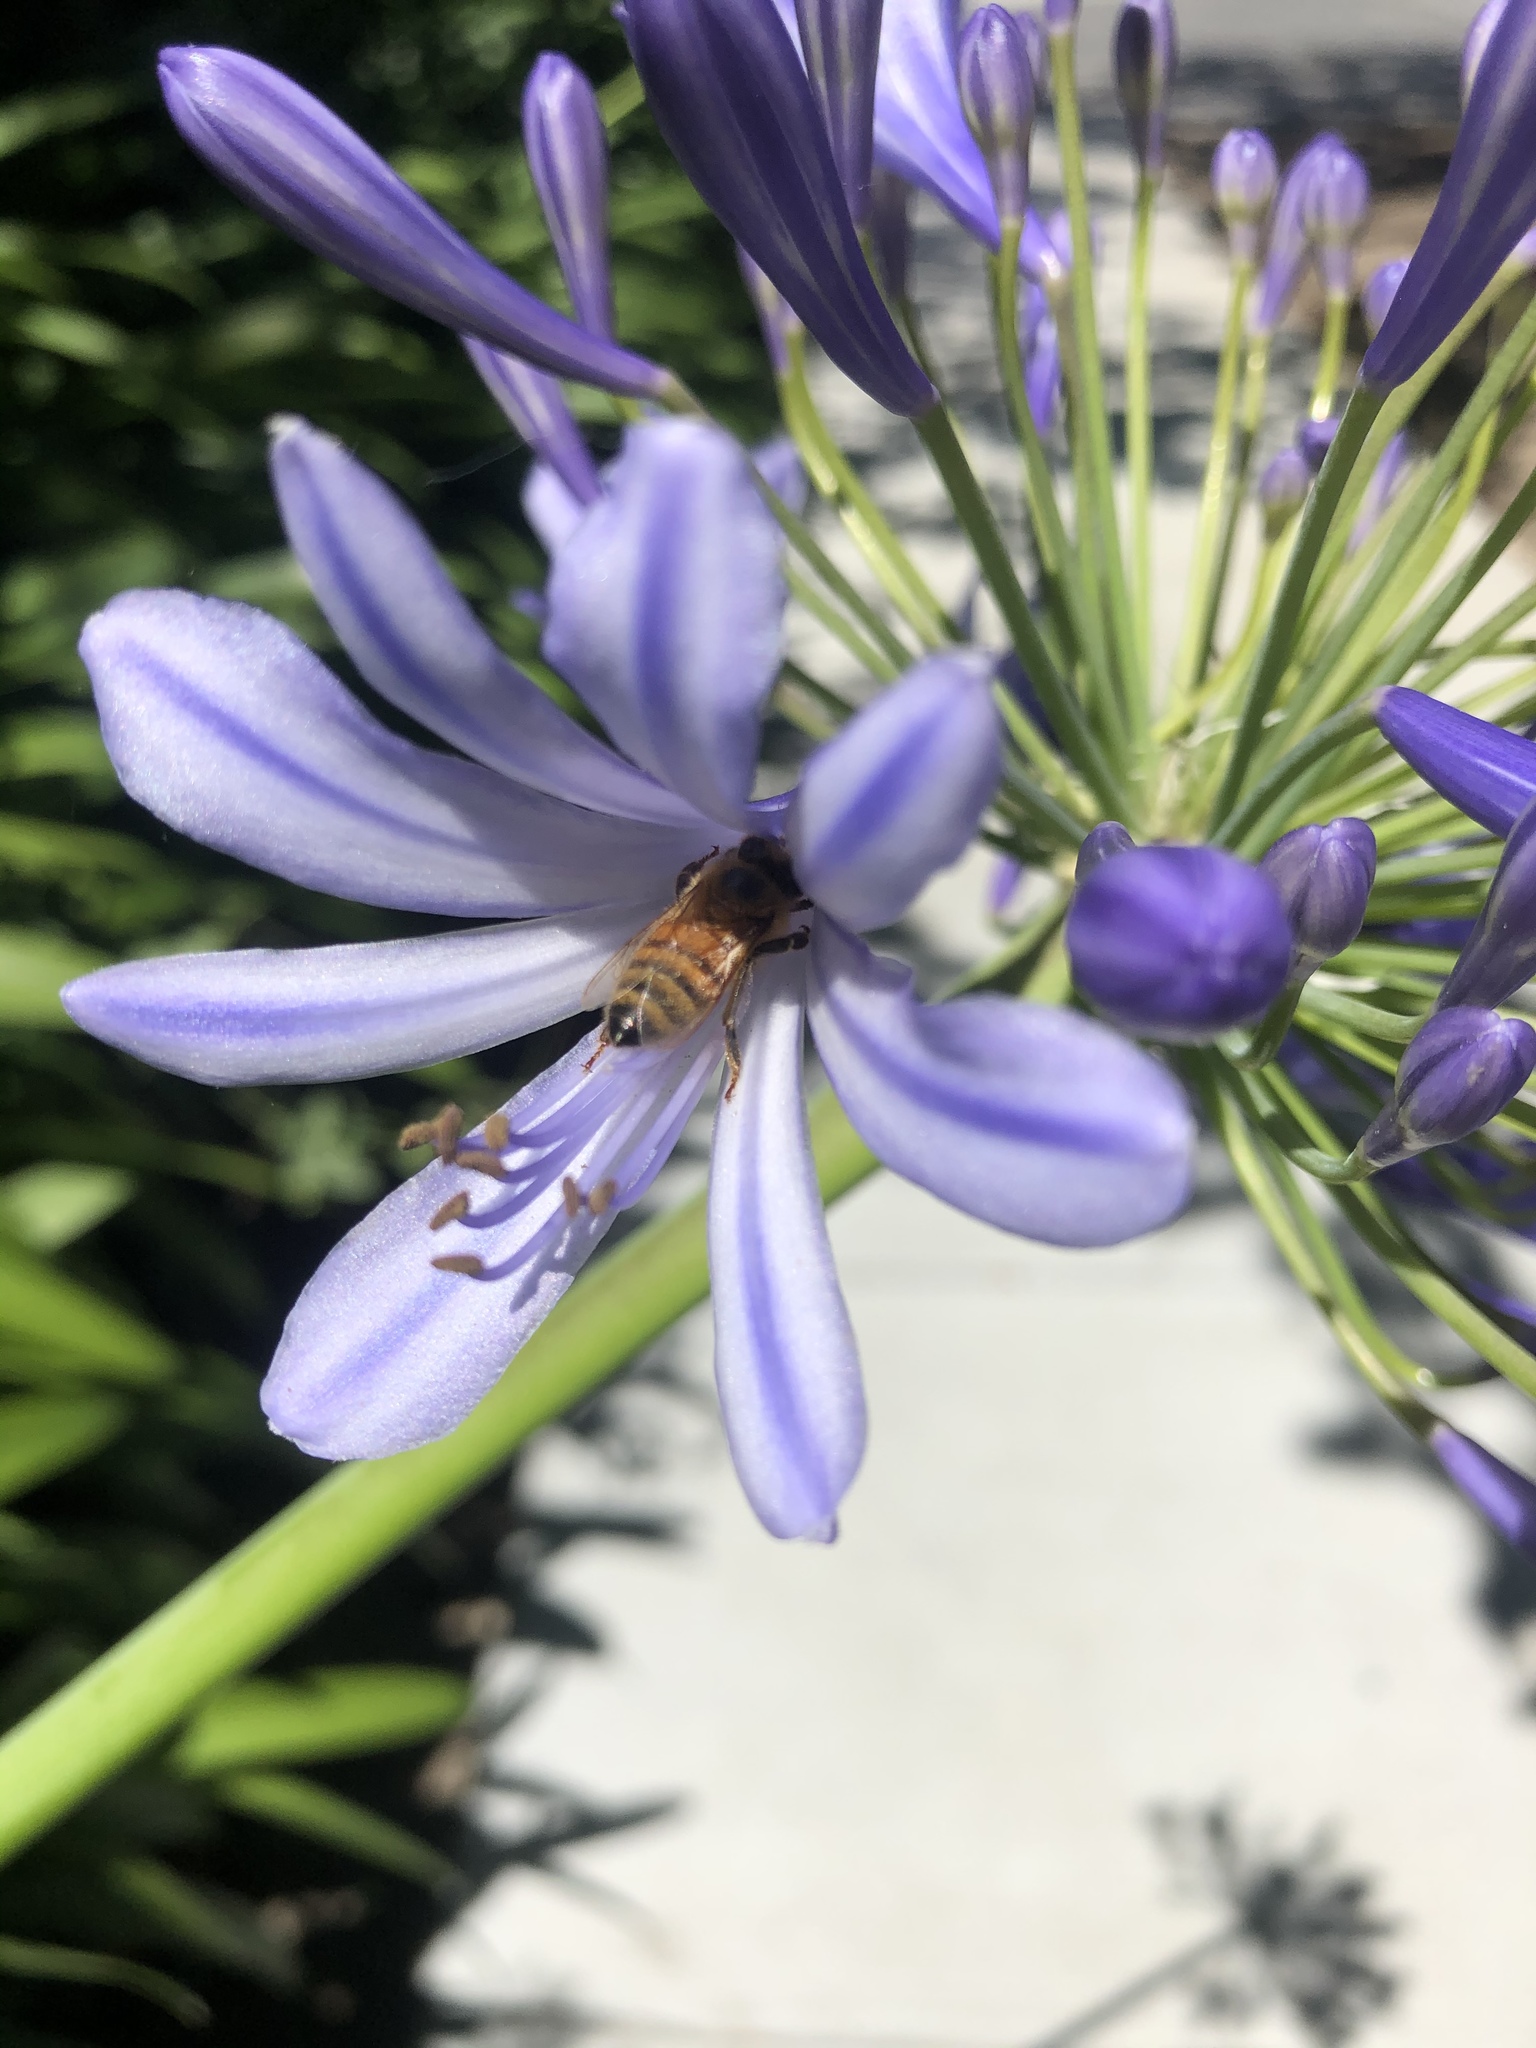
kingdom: Animalia
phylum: Arthropoda
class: Insecta
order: Hymenoptera
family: Apidae
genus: Apis
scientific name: Apis mellifera
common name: Honey bee
